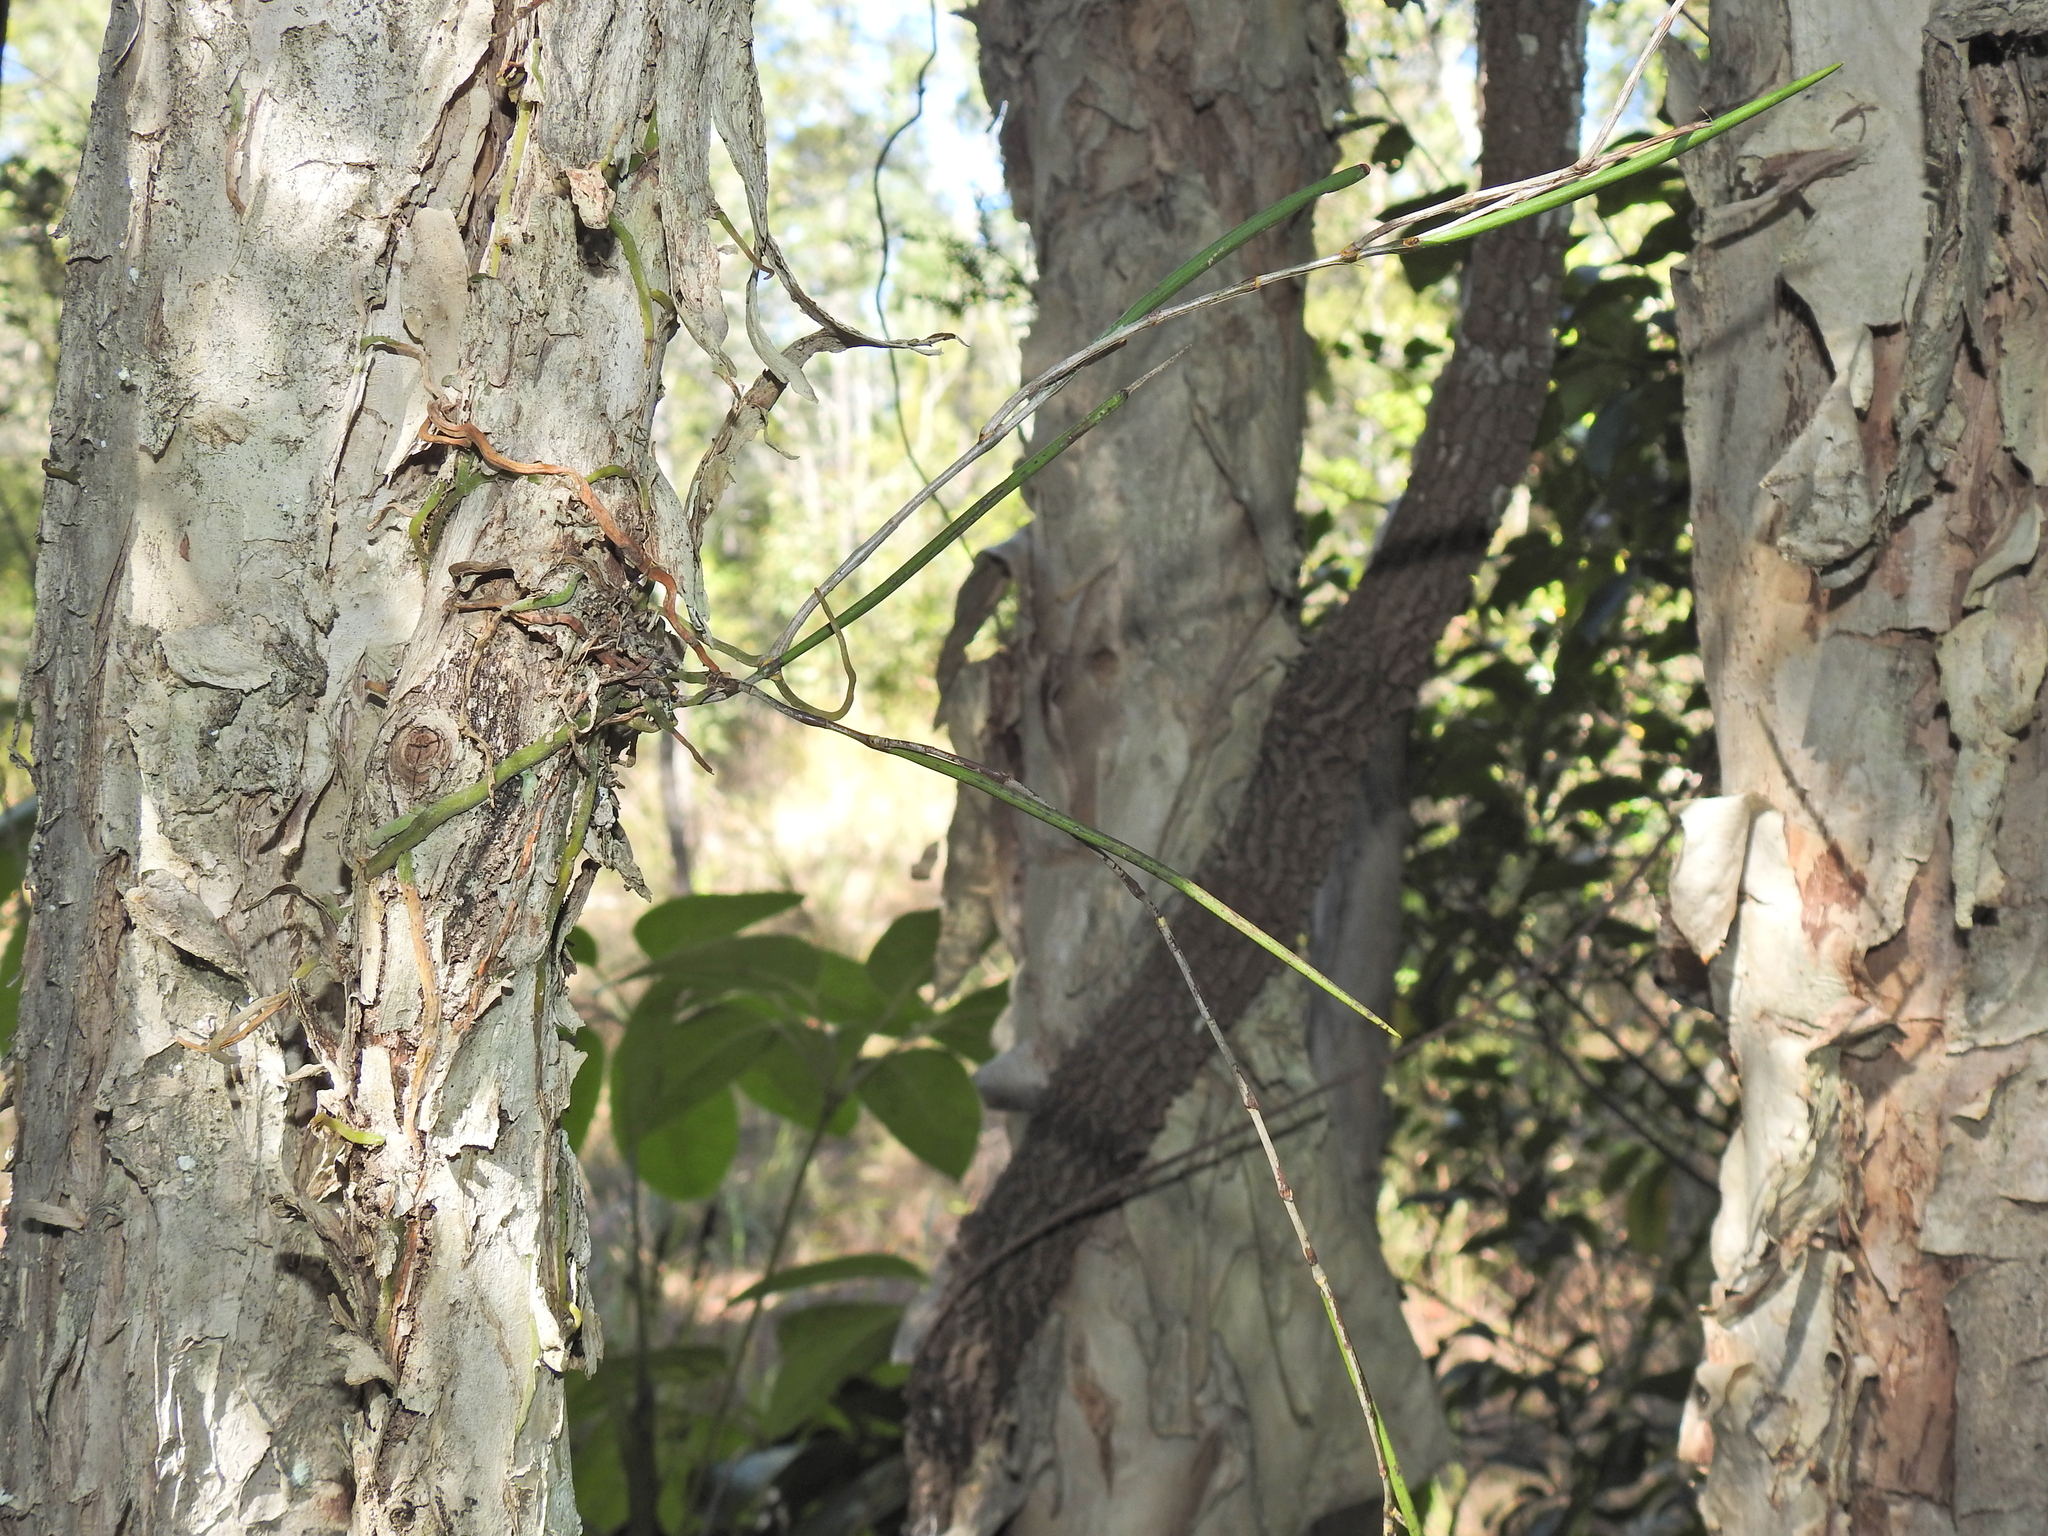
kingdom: Plantae
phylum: Tracheophyta
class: Liliopsida
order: Asparagales
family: Orchidaceae
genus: Dendrobium
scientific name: Dendrobium bowmanii
